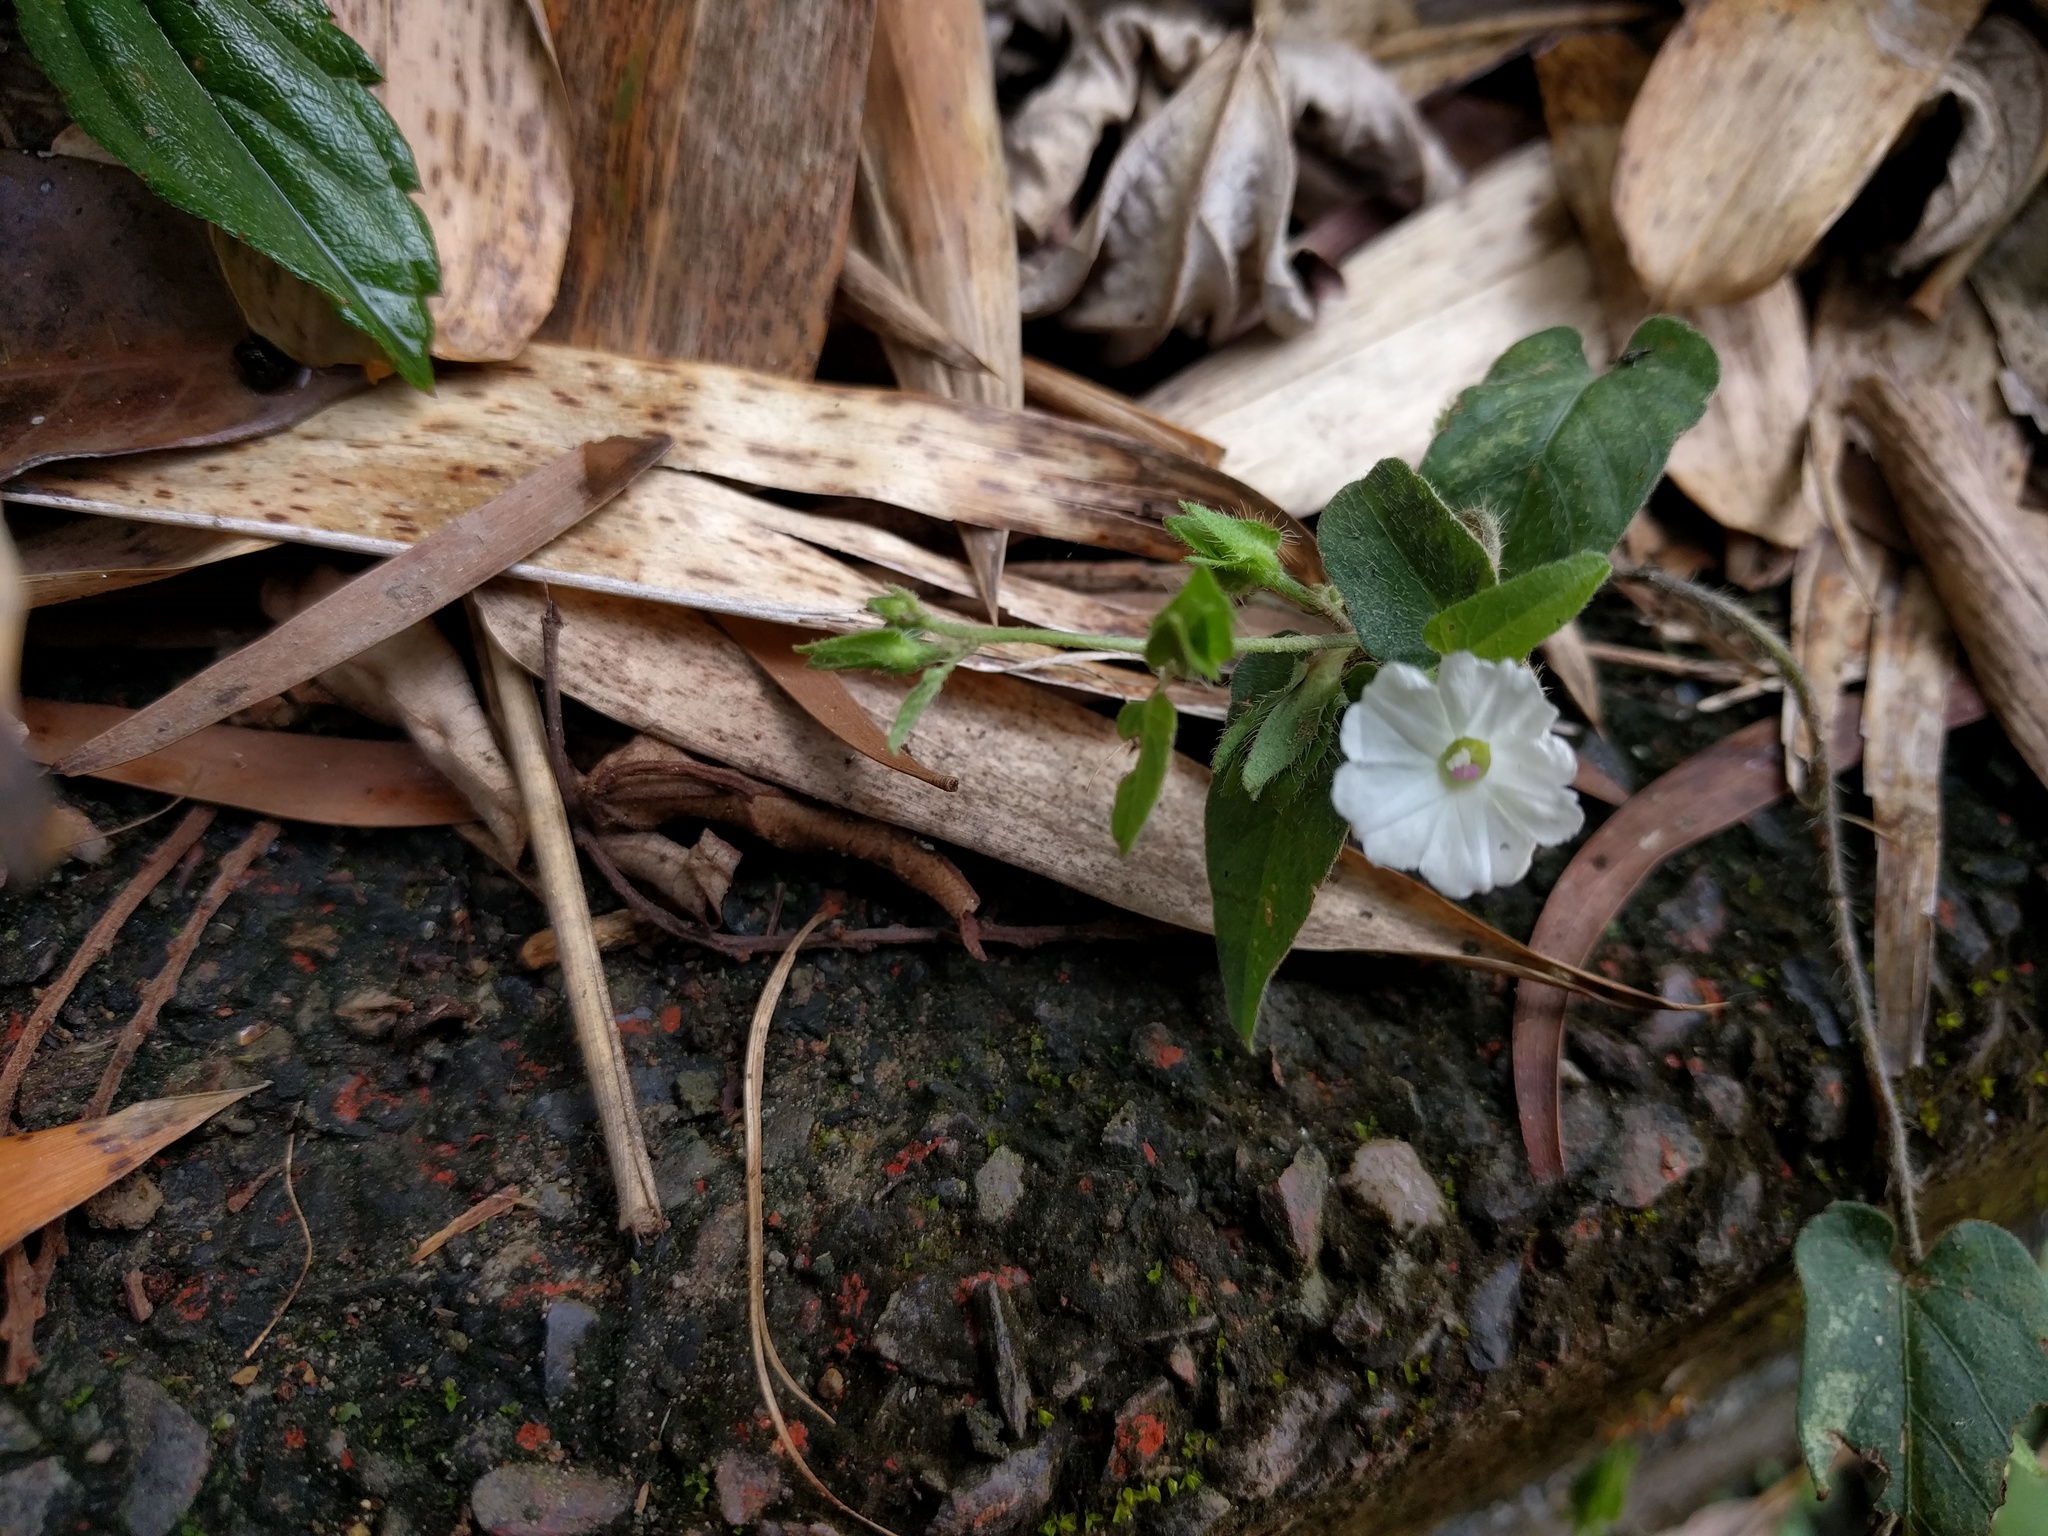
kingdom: Plantae
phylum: Tracheophyta
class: Magnoliopsida
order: Solanales
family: Convolvulaceae
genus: Ipomoea
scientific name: Ipomoea biflora
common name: Bellvine
